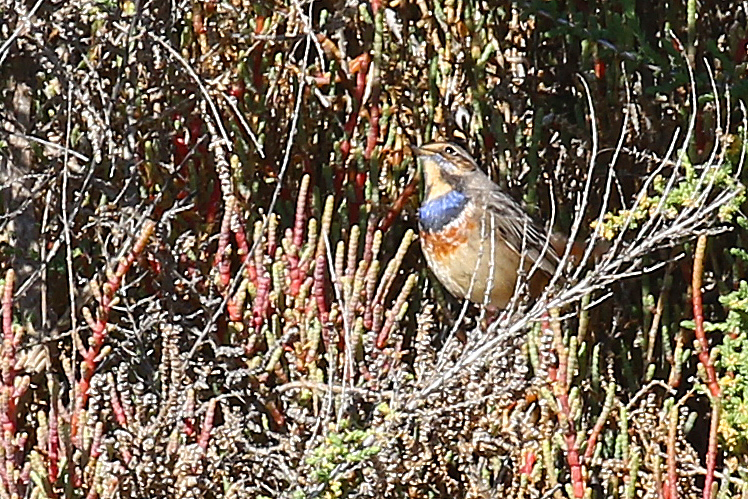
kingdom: Animalia
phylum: Chordata
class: Aves
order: Passeriformes
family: Muscicapidae
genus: Luscinia
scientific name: Luscinia svecica
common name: Bluethroat
